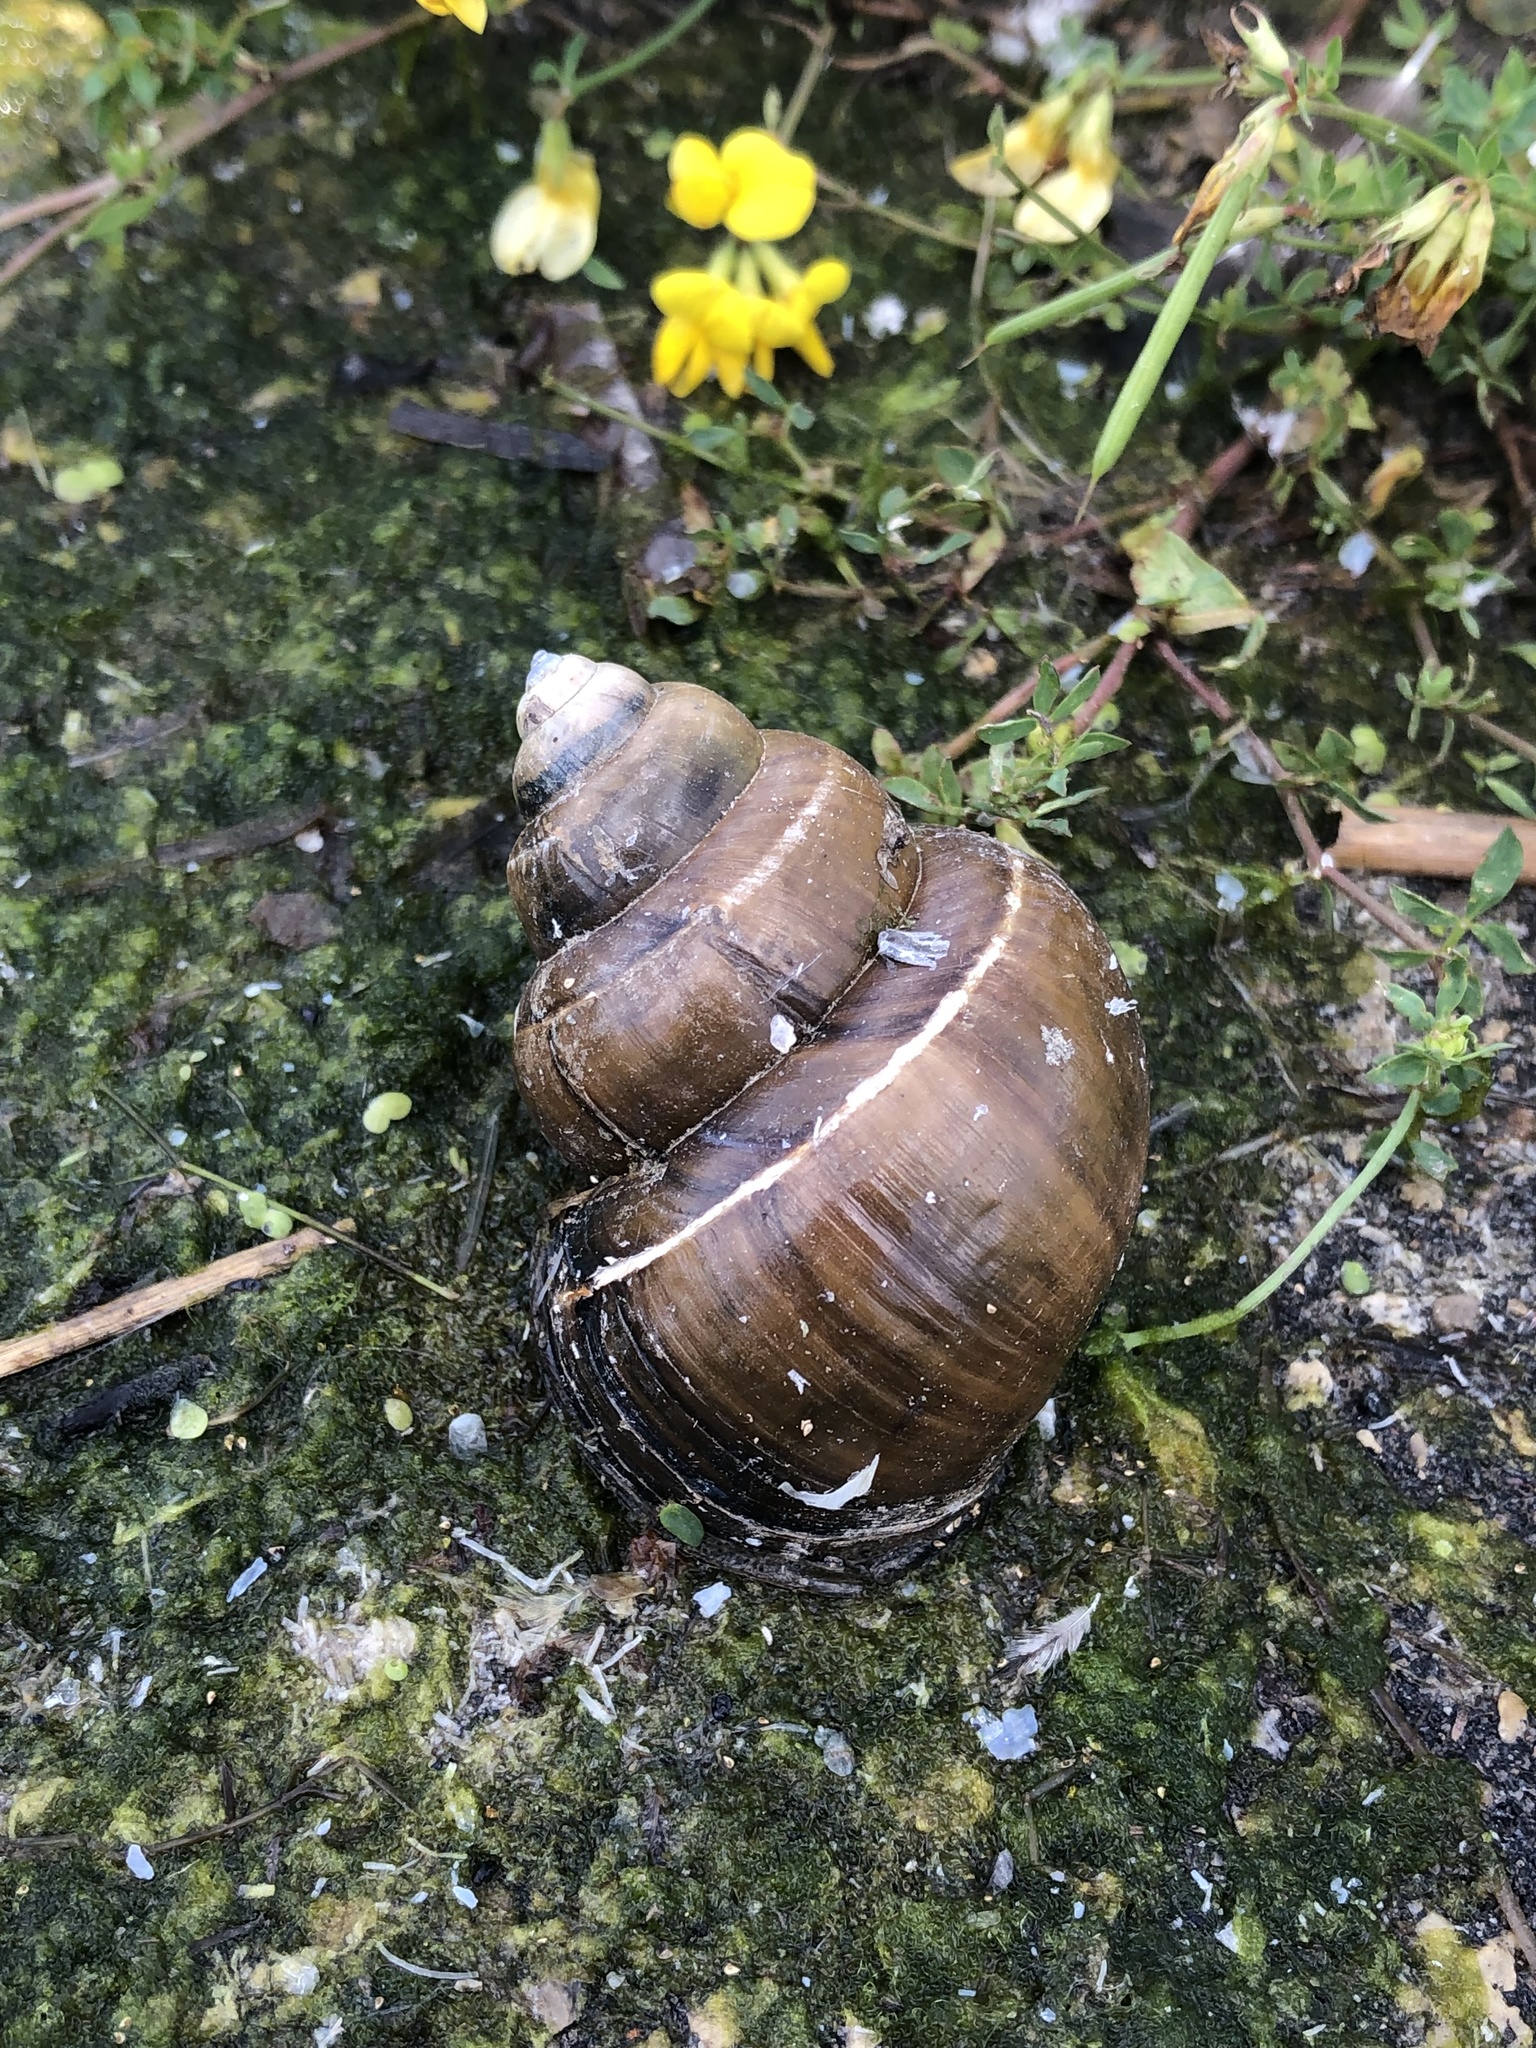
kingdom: Animalia
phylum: Mollusca
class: Gastropoda
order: Architaenioglossa
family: Viviparidae
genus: Cipangopaludina
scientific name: Cipangopaludina chinensis
